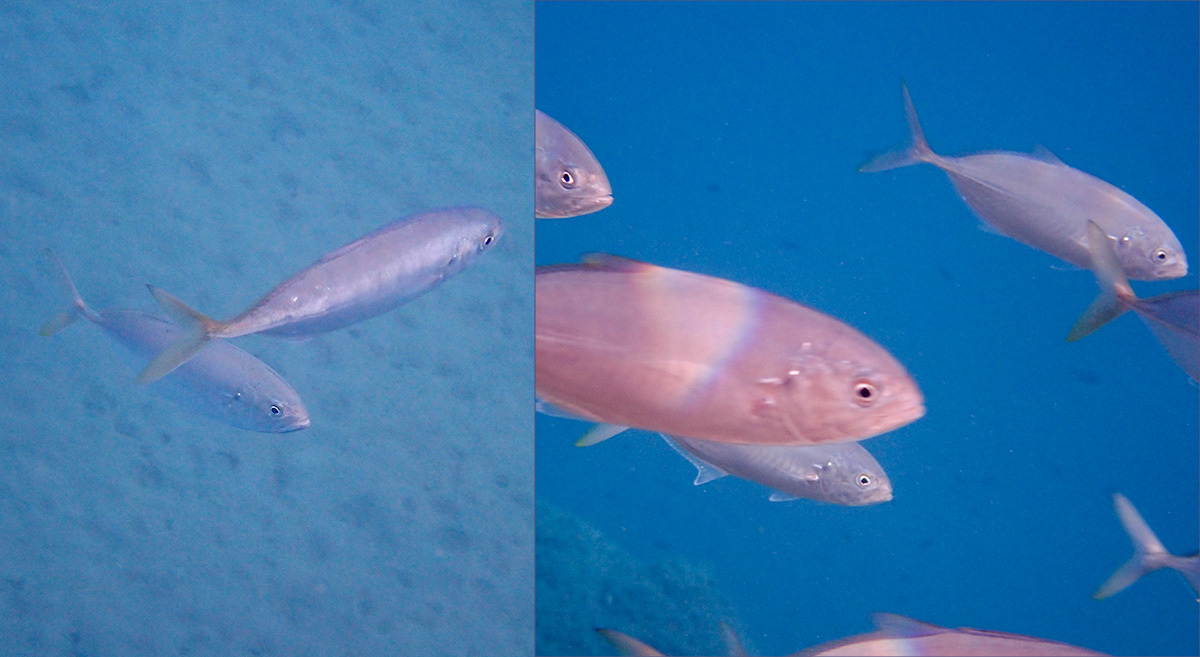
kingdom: Animalia
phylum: Chordata
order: Perciformes
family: Carangidae
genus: Caranx
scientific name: Caranx crysos
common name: Blue runner
